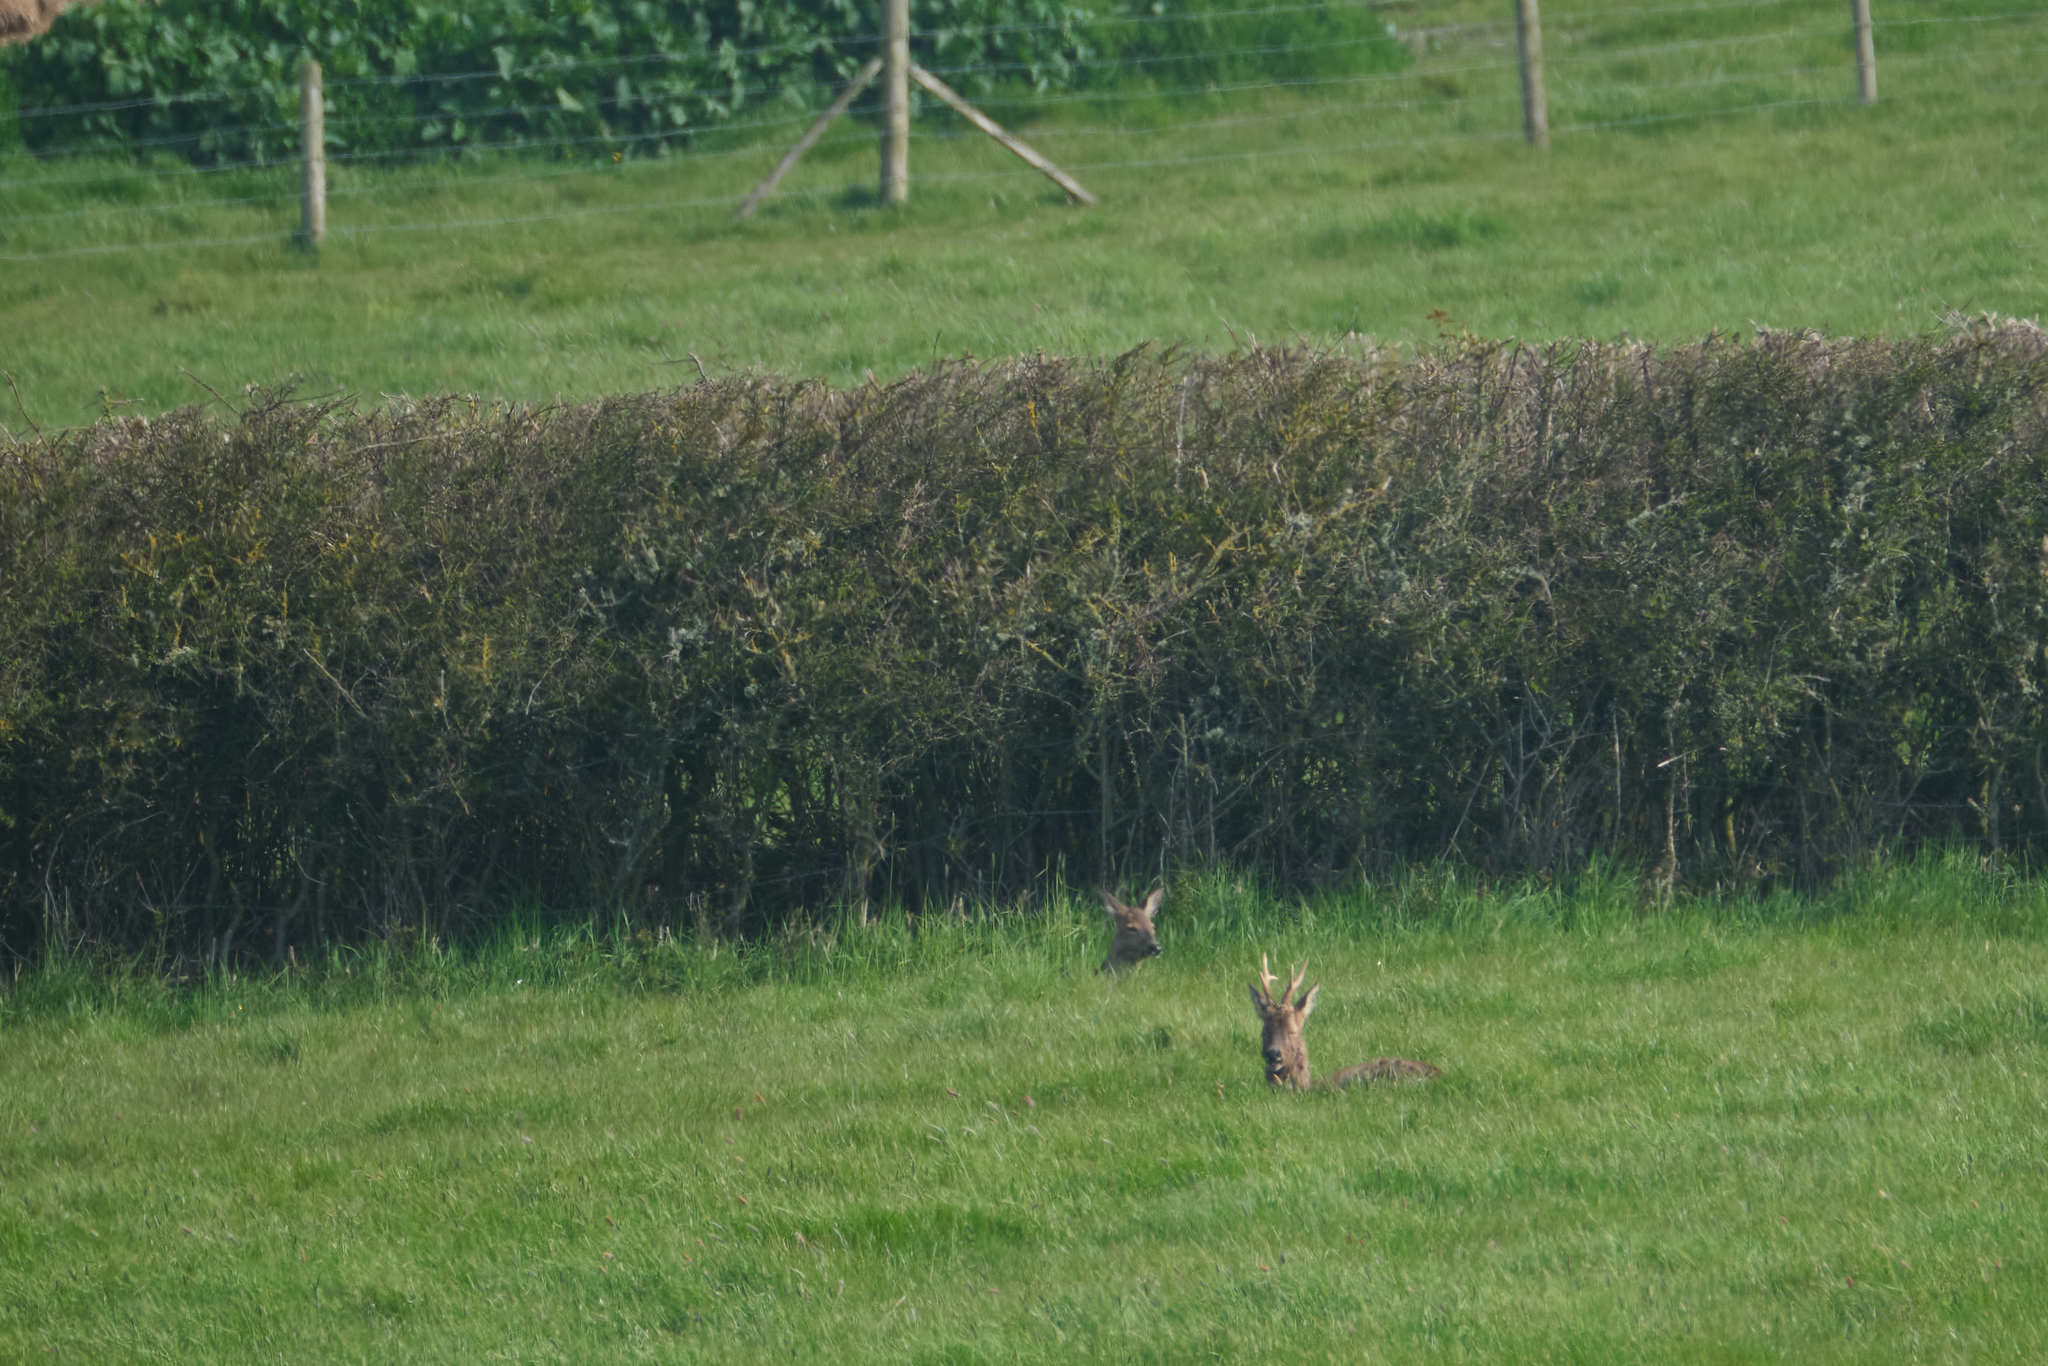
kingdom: Animalia
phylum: Chordata
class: Mammalia
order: Artiodactyla
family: Cervidae
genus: Capreolus
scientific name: Capreolus capreolus
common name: Western roe deer
